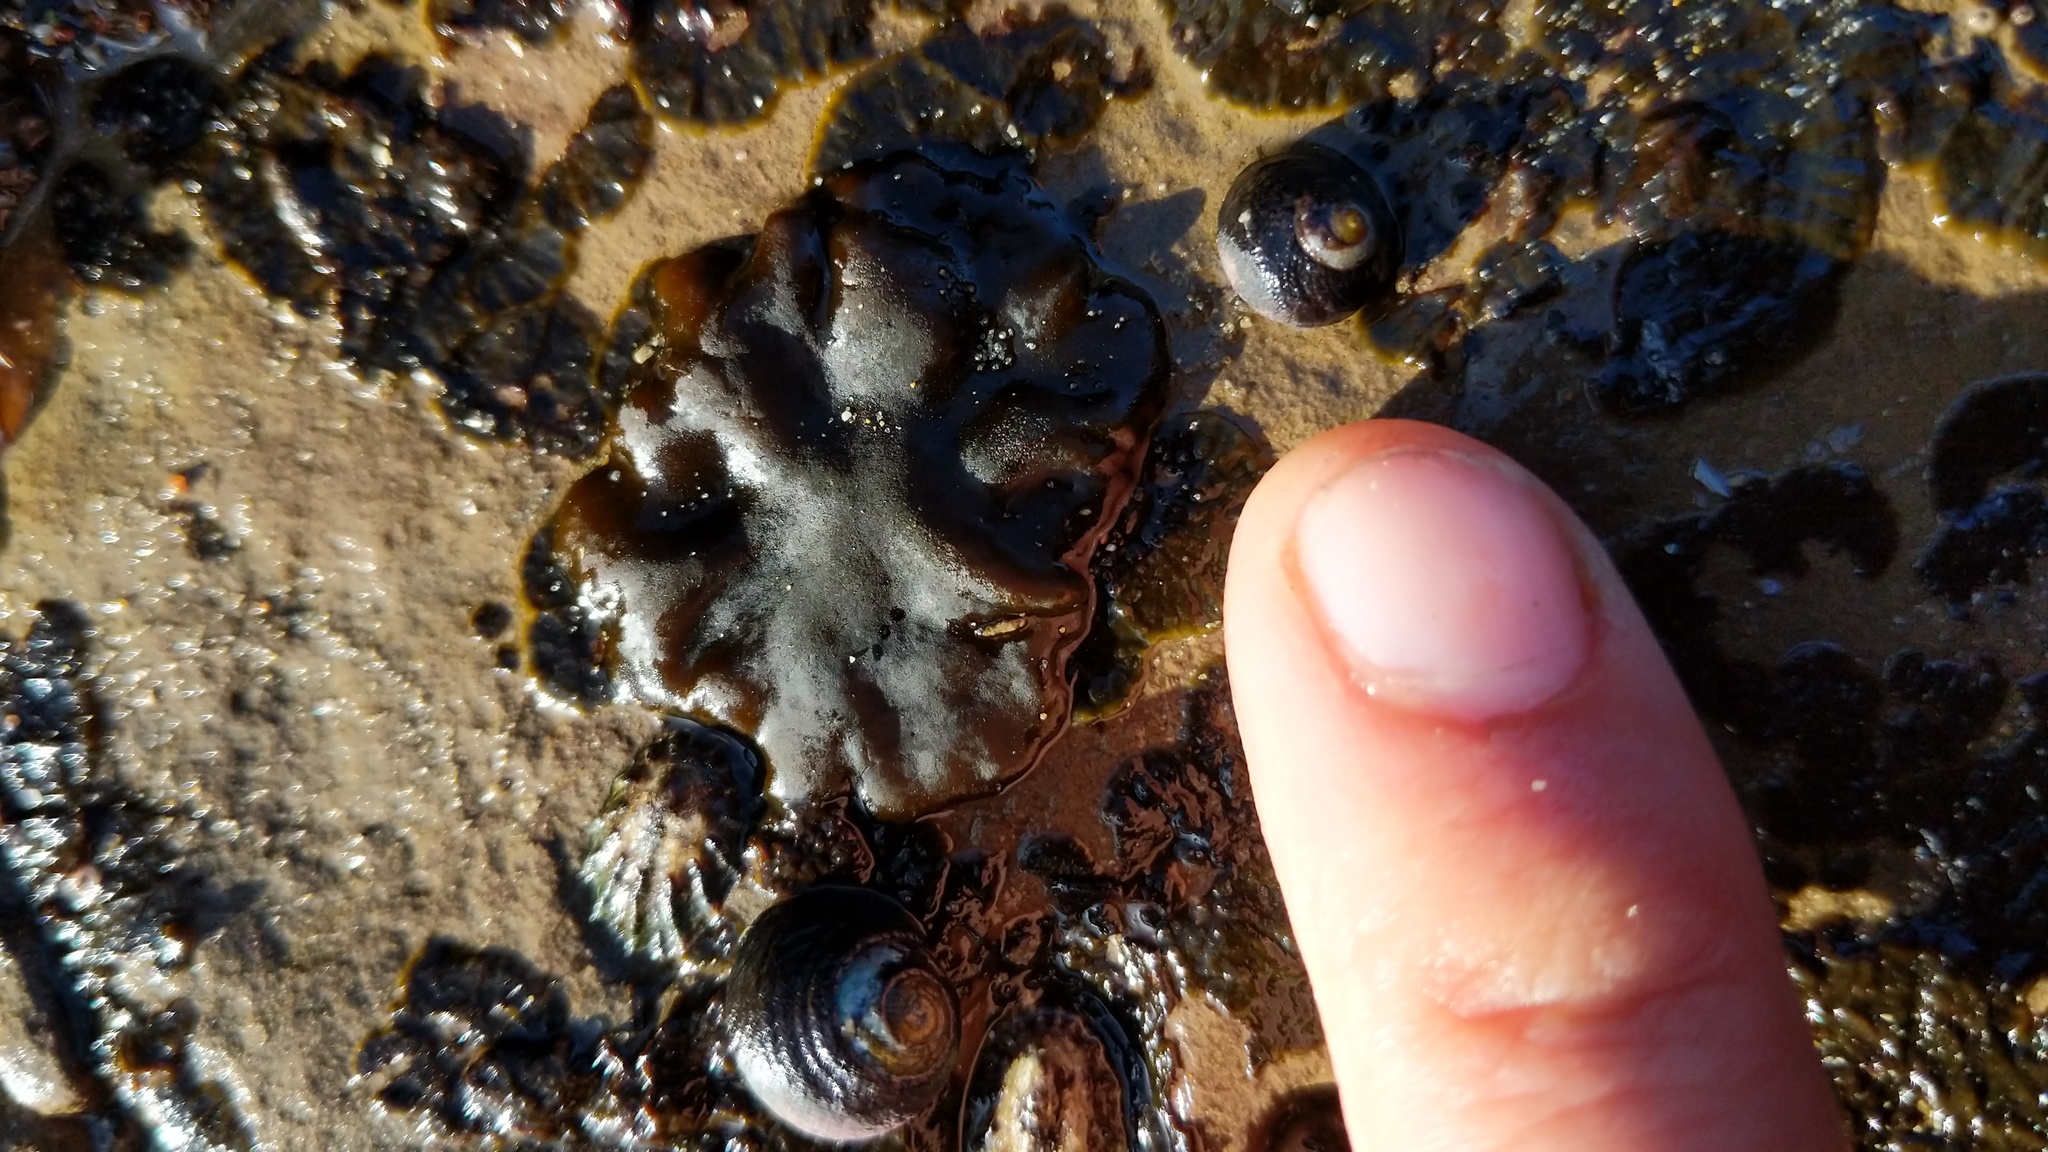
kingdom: Chromista
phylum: Ochrophyta
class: Phaeophyceae
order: Ectocarpales
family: Petrospongiaceae
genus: Petrospongium
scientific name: Petrospongium rugosum
